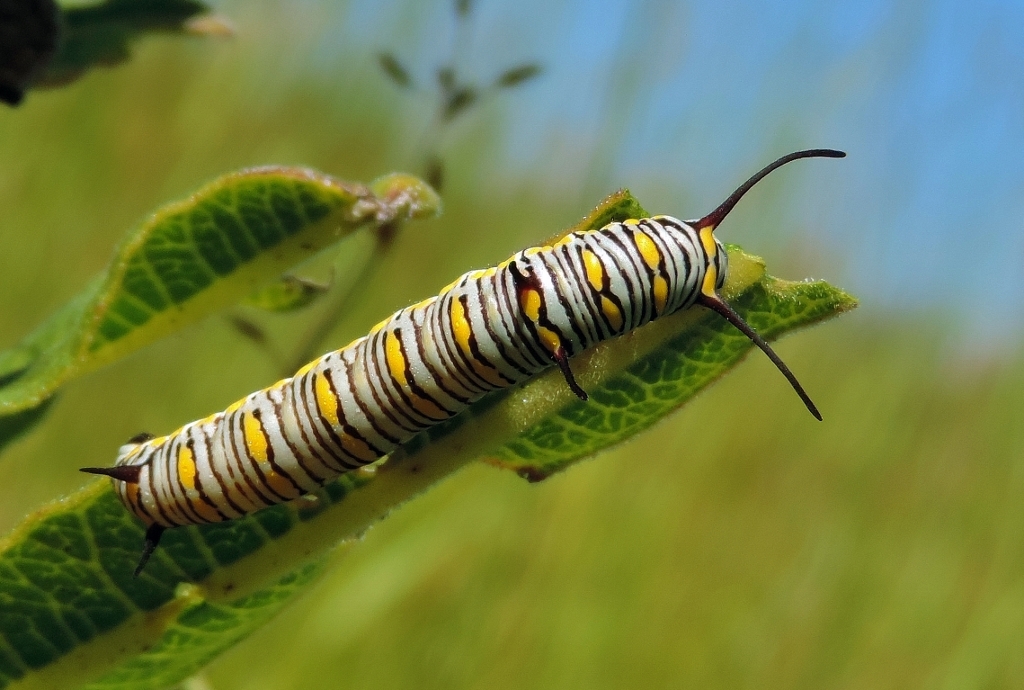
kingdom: Animalia
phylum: Arthropoda
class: Insecta
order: Lepidoptera
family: Nymphalidae
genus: Danaus
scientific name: Danaus chrysippus
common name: Plain tiger
